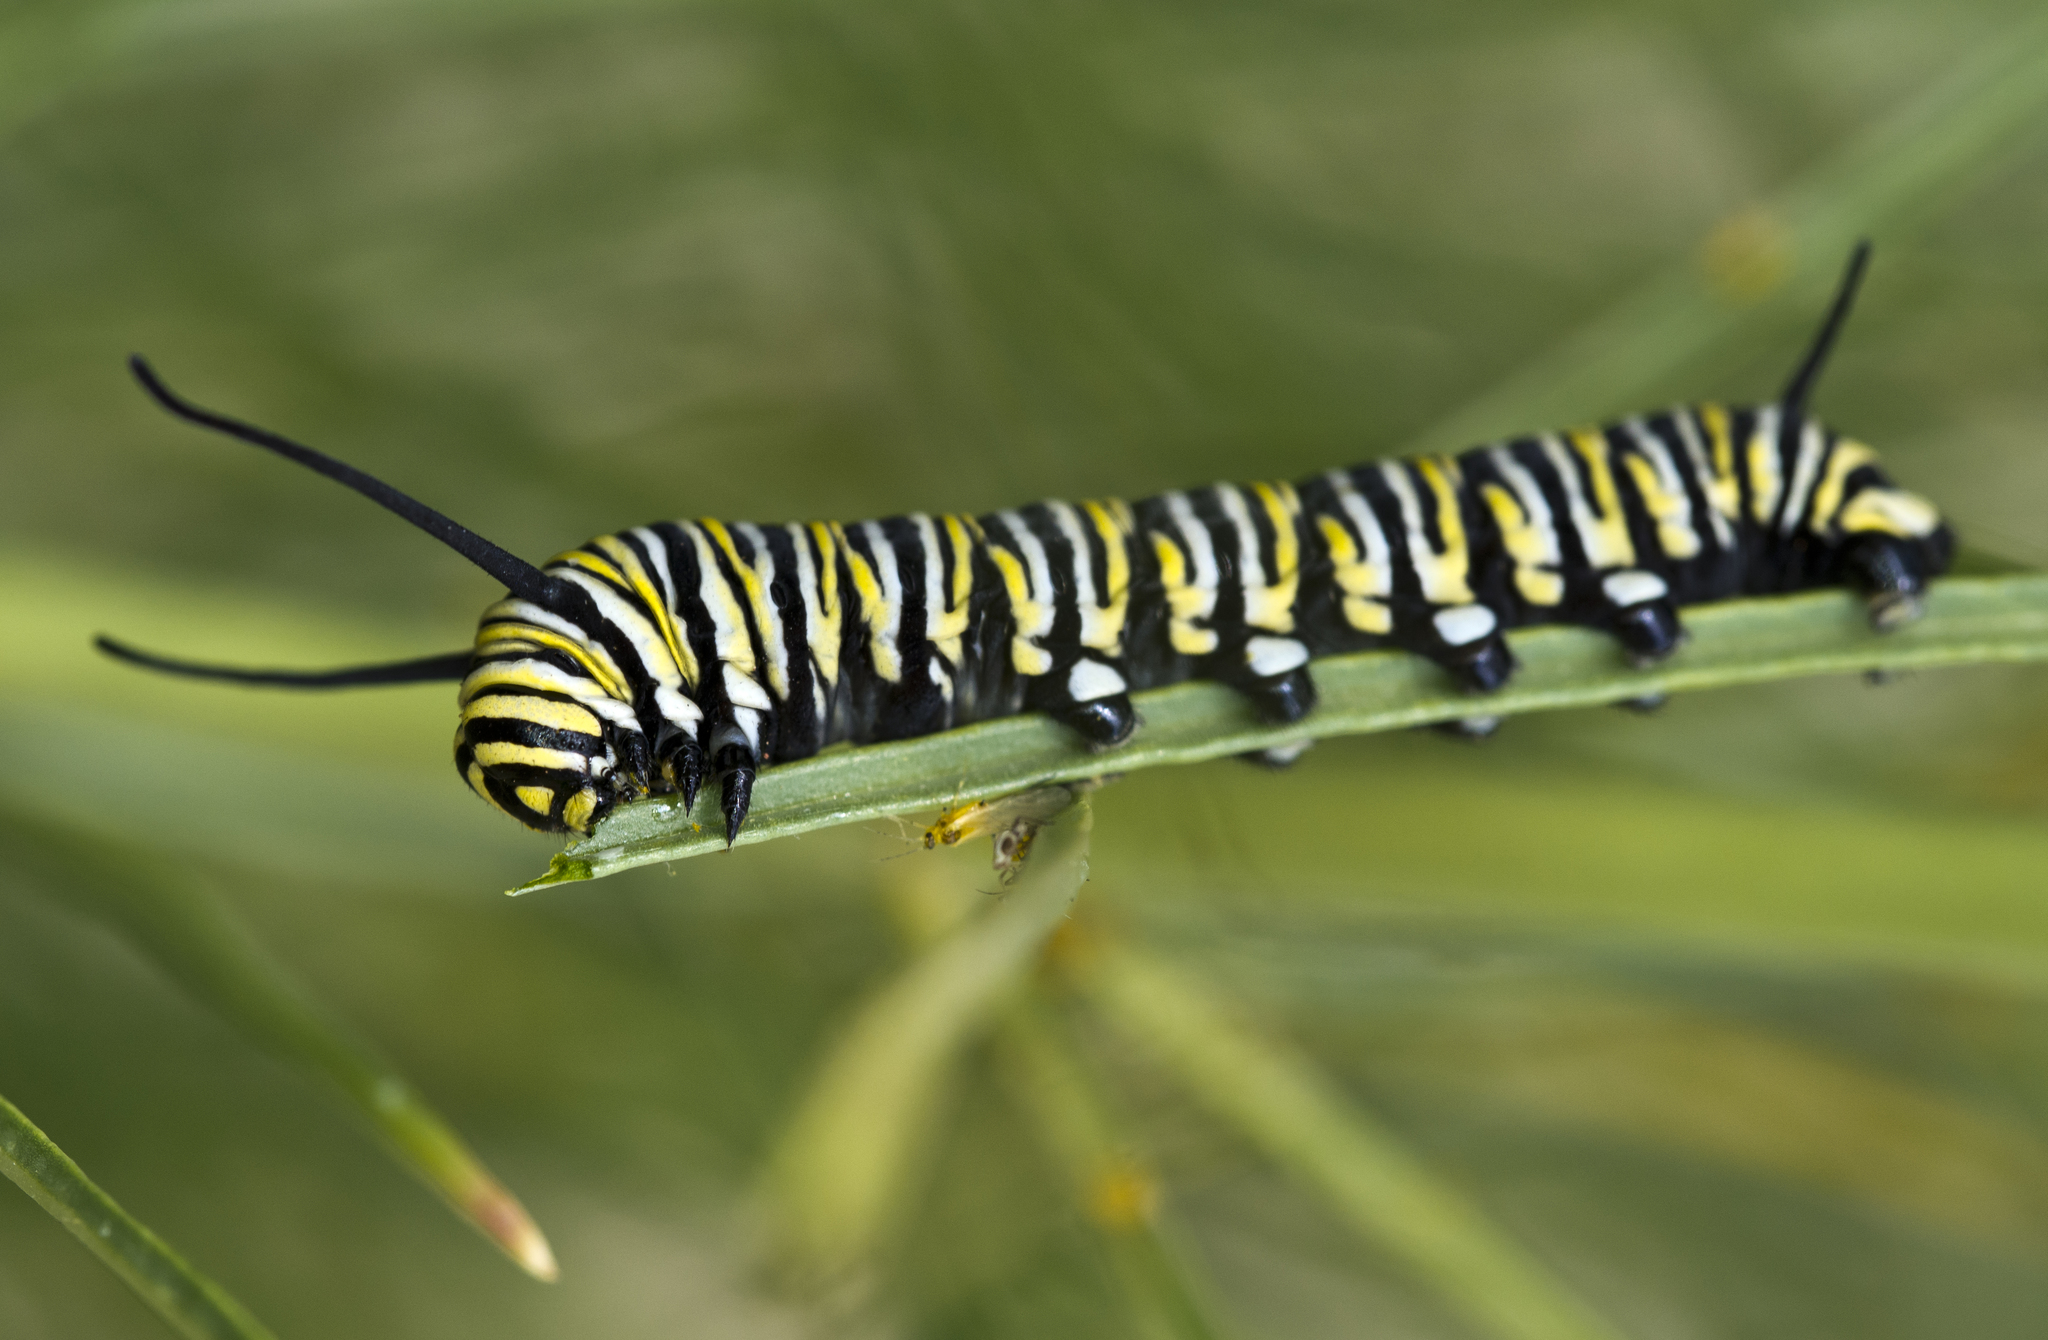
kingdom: Animalia
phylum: Arthropoda
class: Insecta
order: Lepidoptera
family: Nymphalidae
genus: Danaus
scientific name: Danaus plexippus
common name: Monarch
